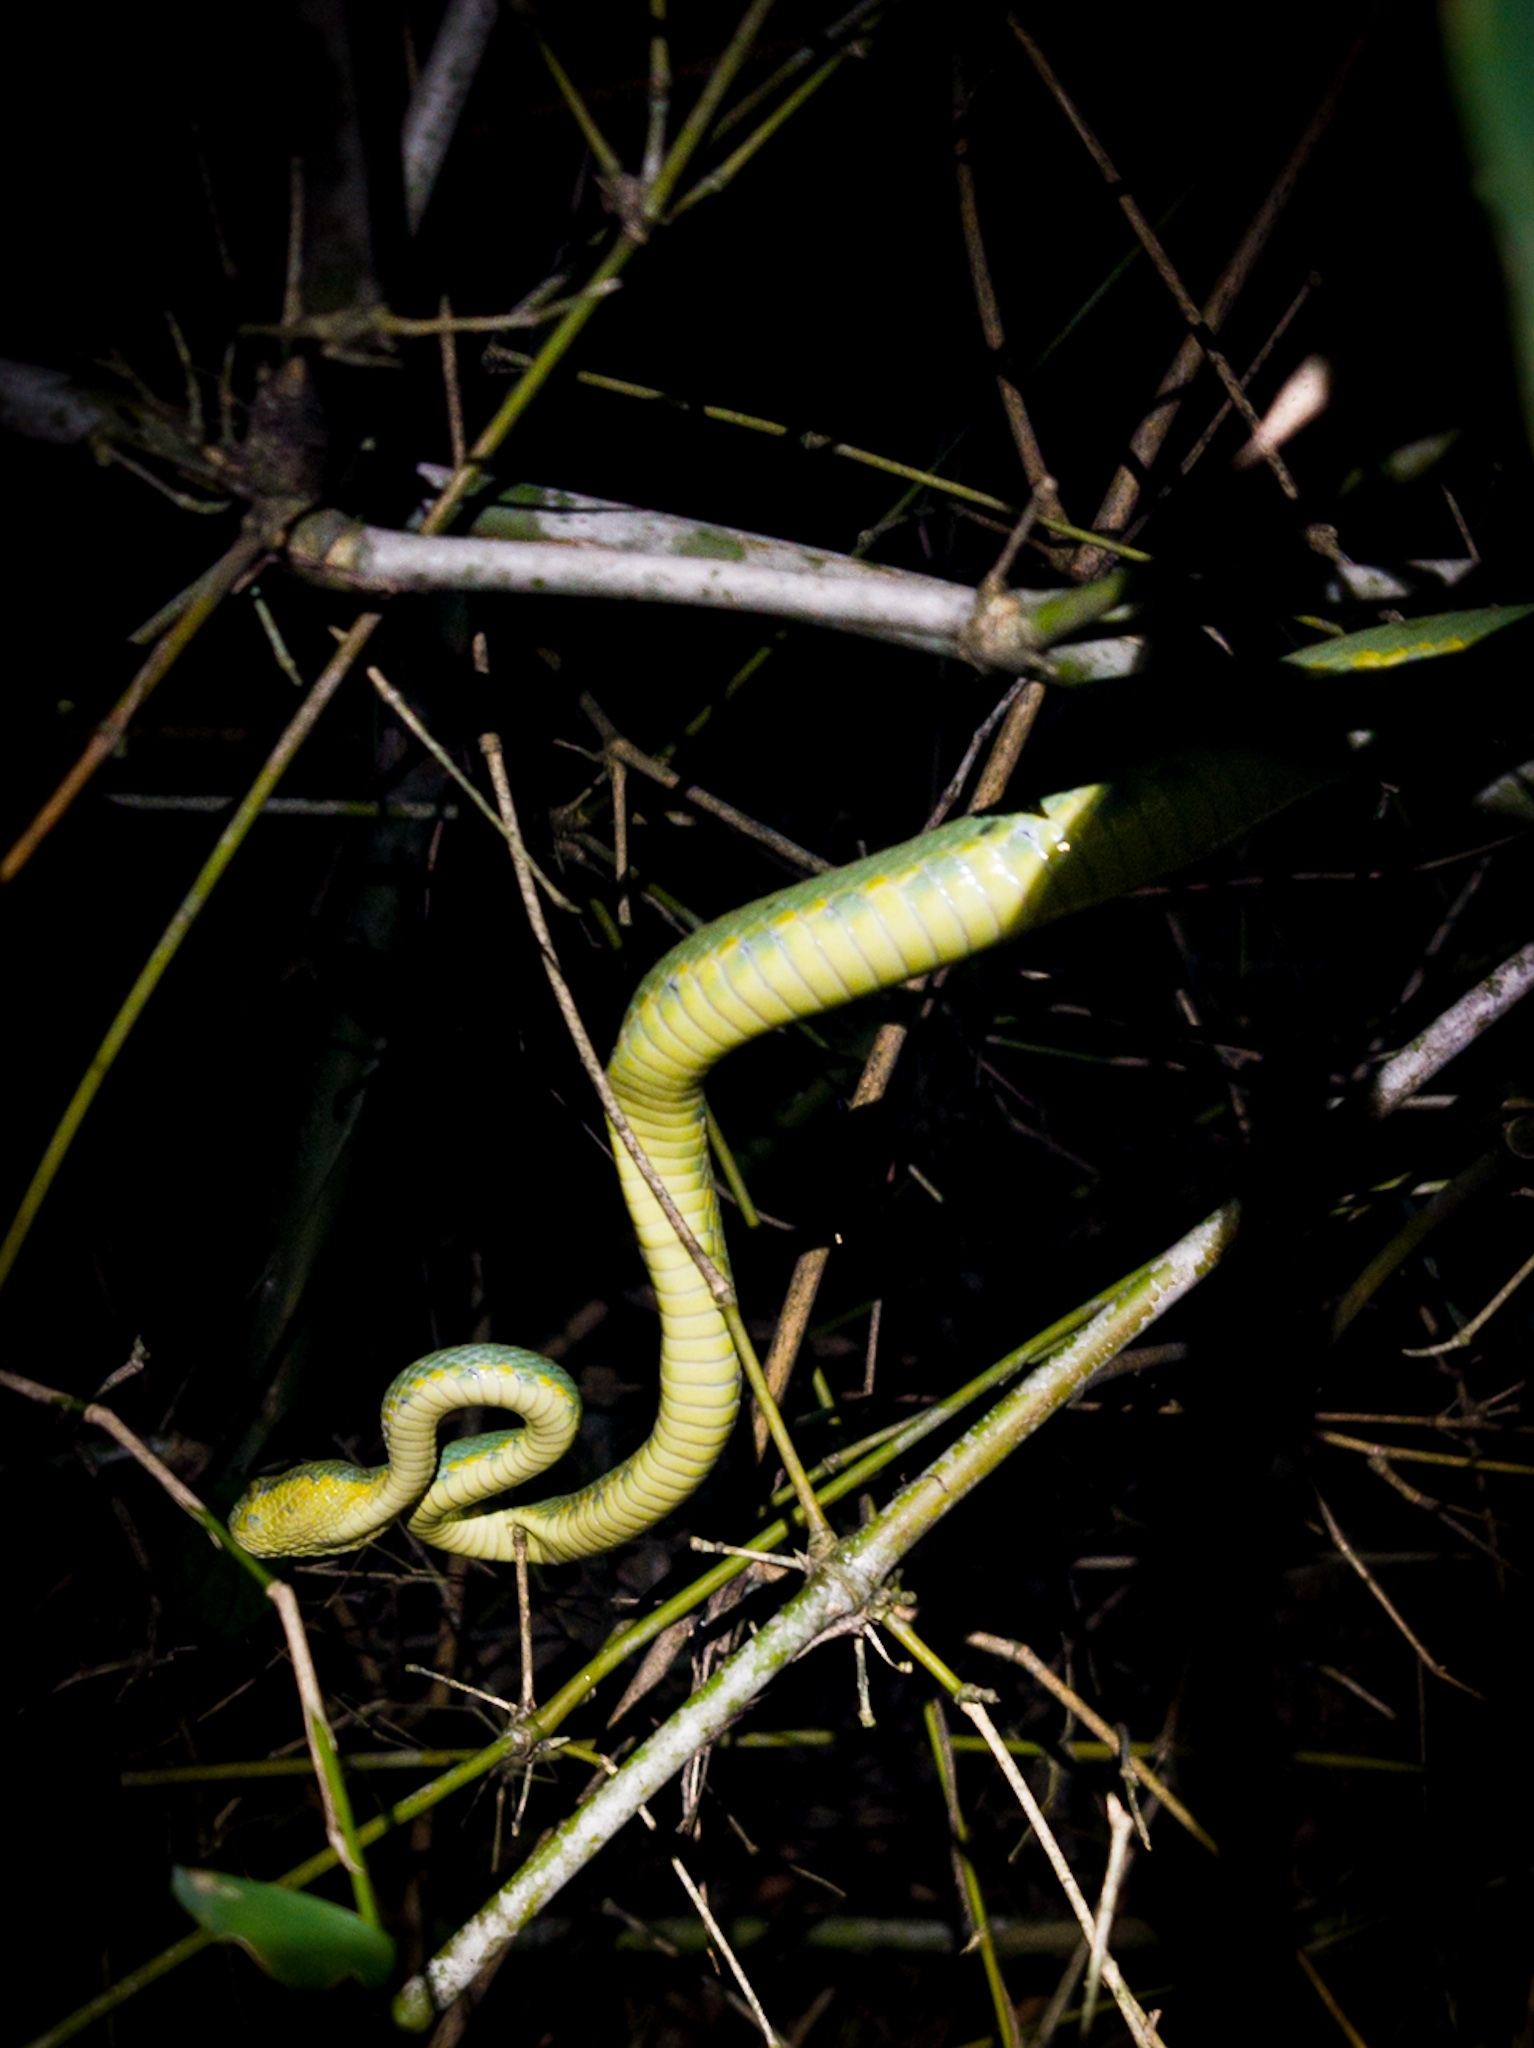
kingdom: Animalia
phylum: Chordata
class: Squamata
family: Viperidae
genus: Craspedocephalus
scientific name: Craspedocephalus gramineus
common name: Common bamboo viper
